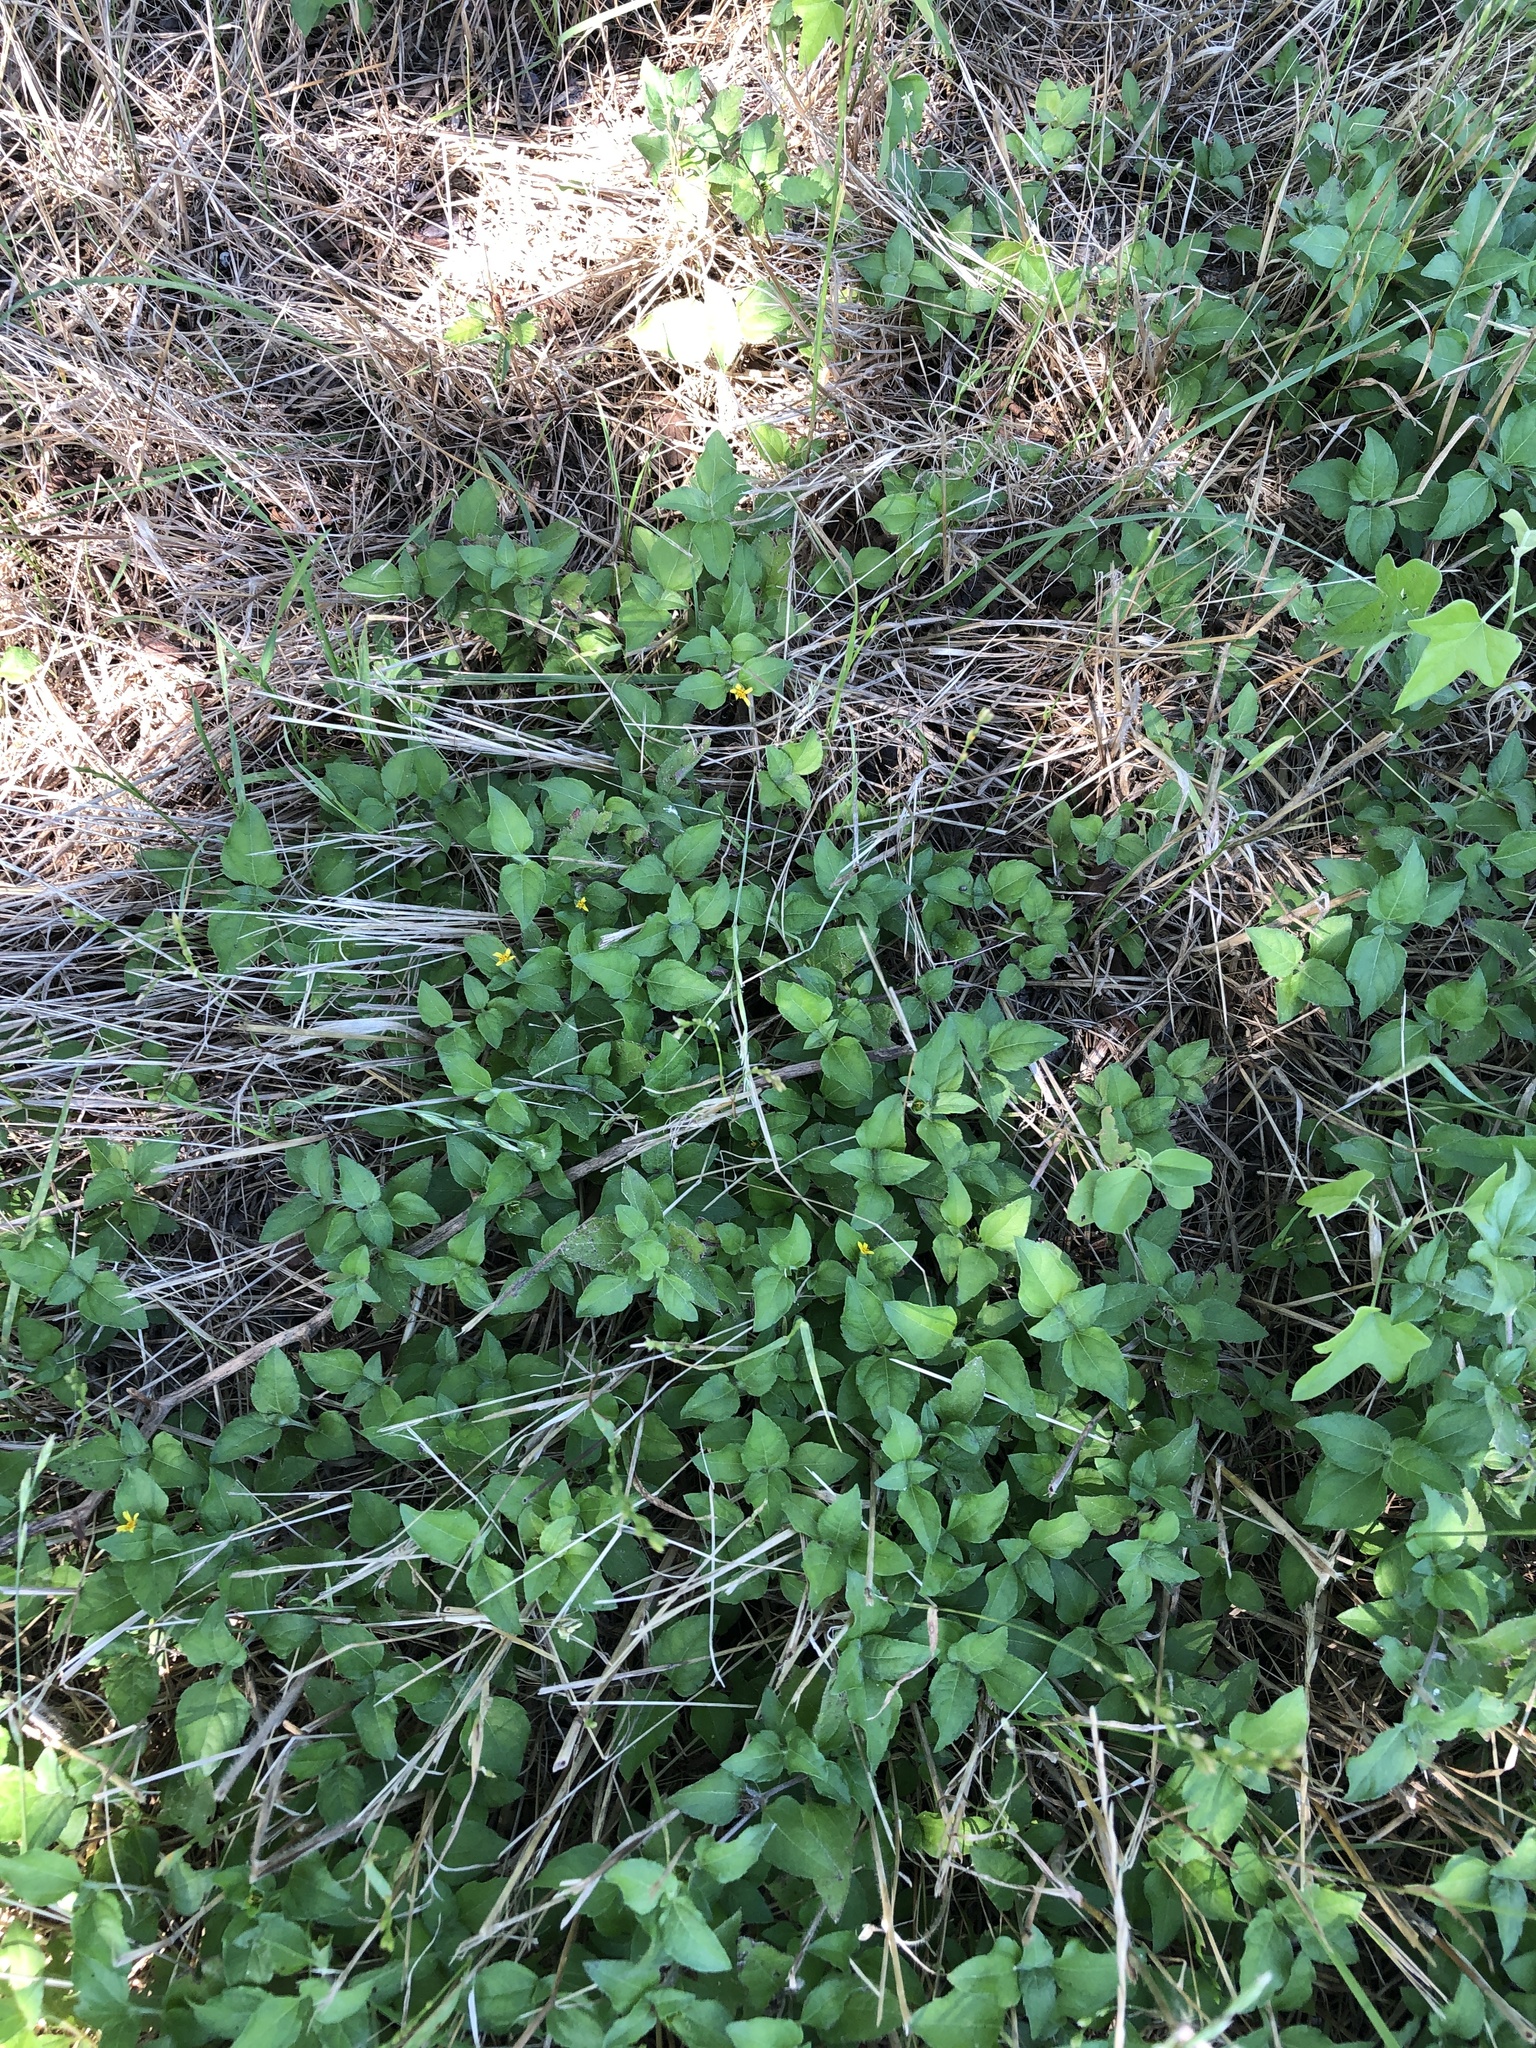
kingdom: Plantae
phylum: Tracheophyta
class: Magnoliopsida
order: Asterales
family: Asteraceae
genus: Calyptocarpus
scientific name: Calyptocarpus vialis
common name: Straggler daisy
